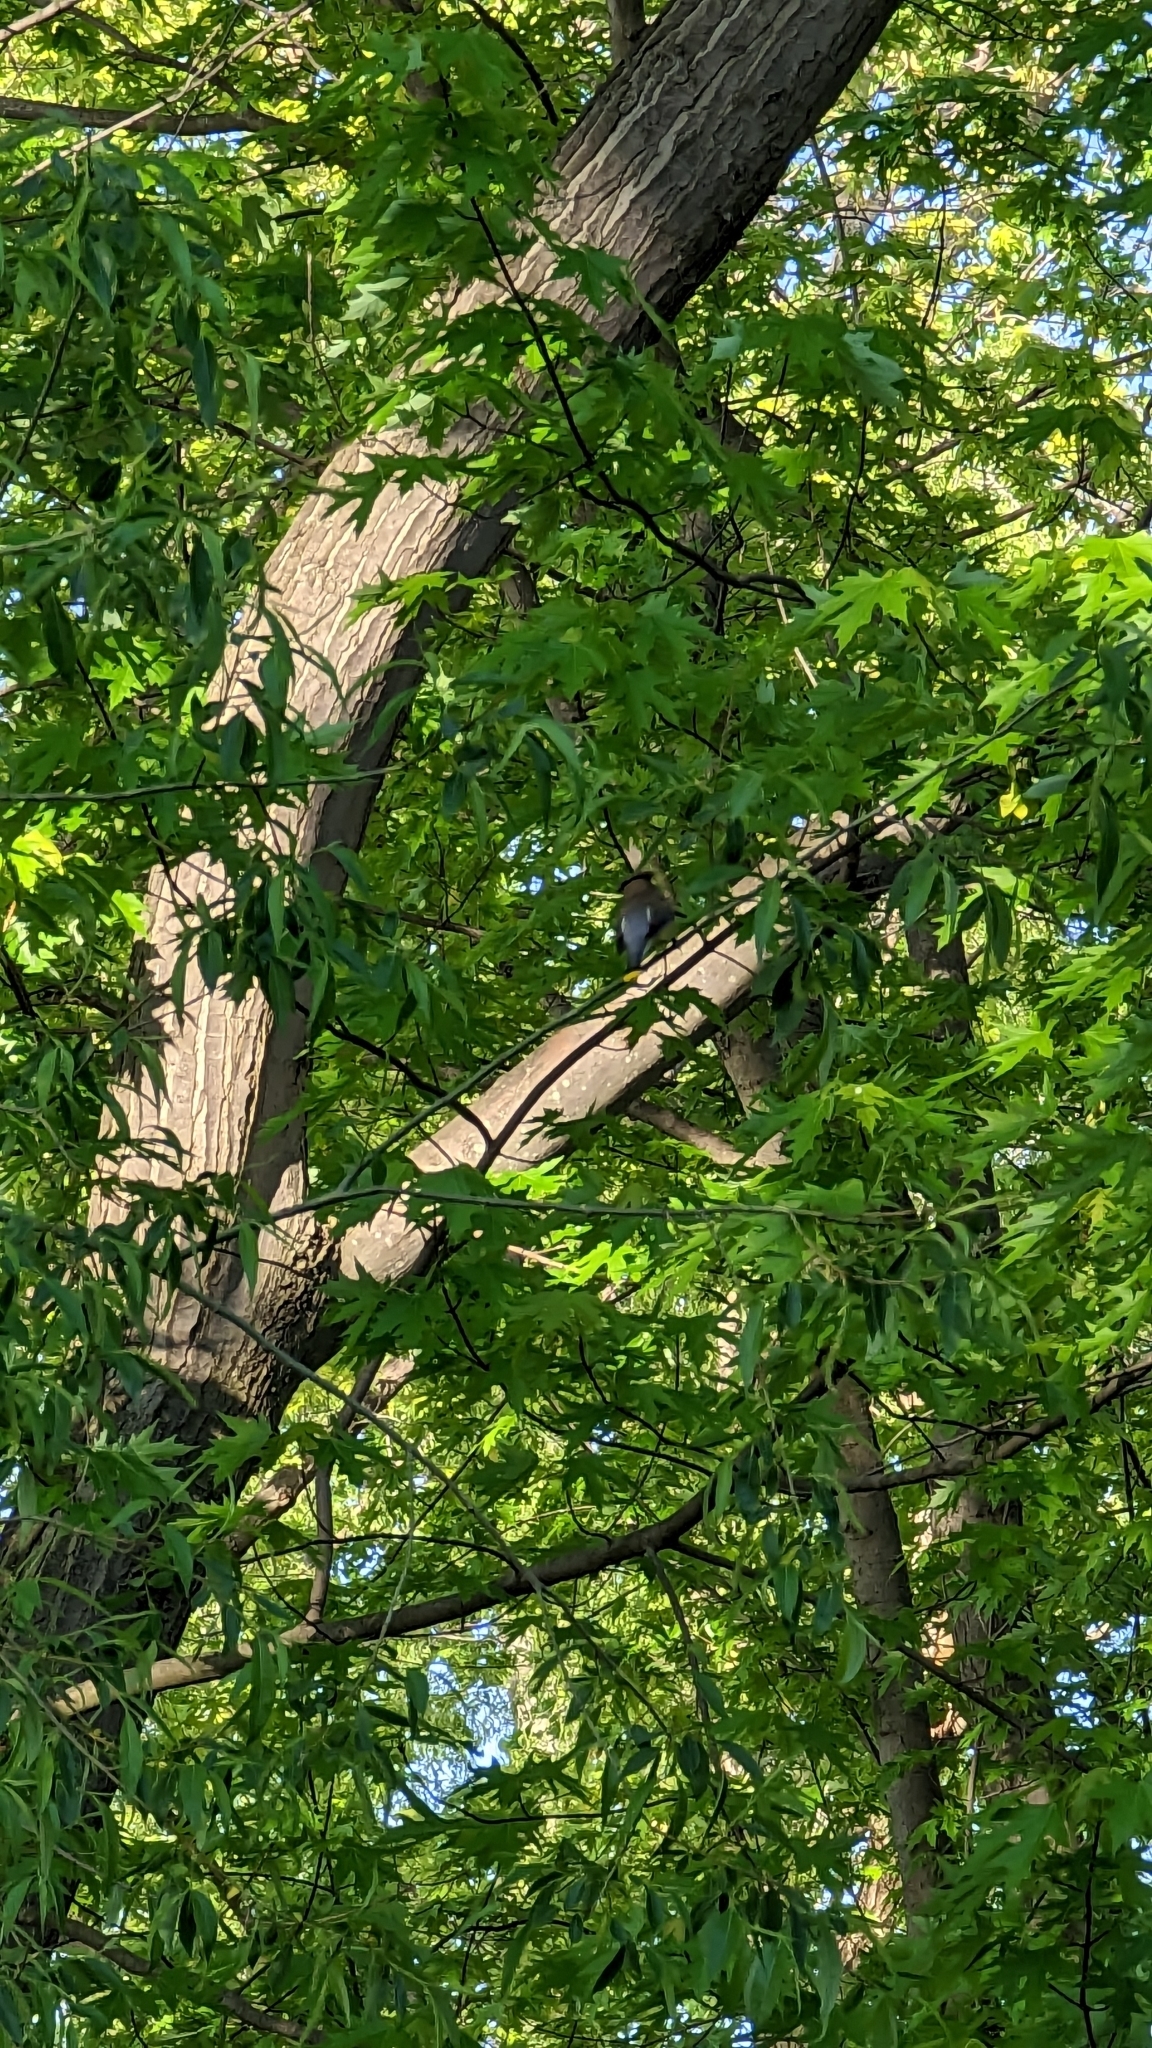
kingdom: Animalia
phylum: Chordata
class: Aves
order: Passeriformes
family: Bombycillidae
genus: Bombycilla
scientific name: Bombycilla cedrorum
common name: Cedar waxwing
